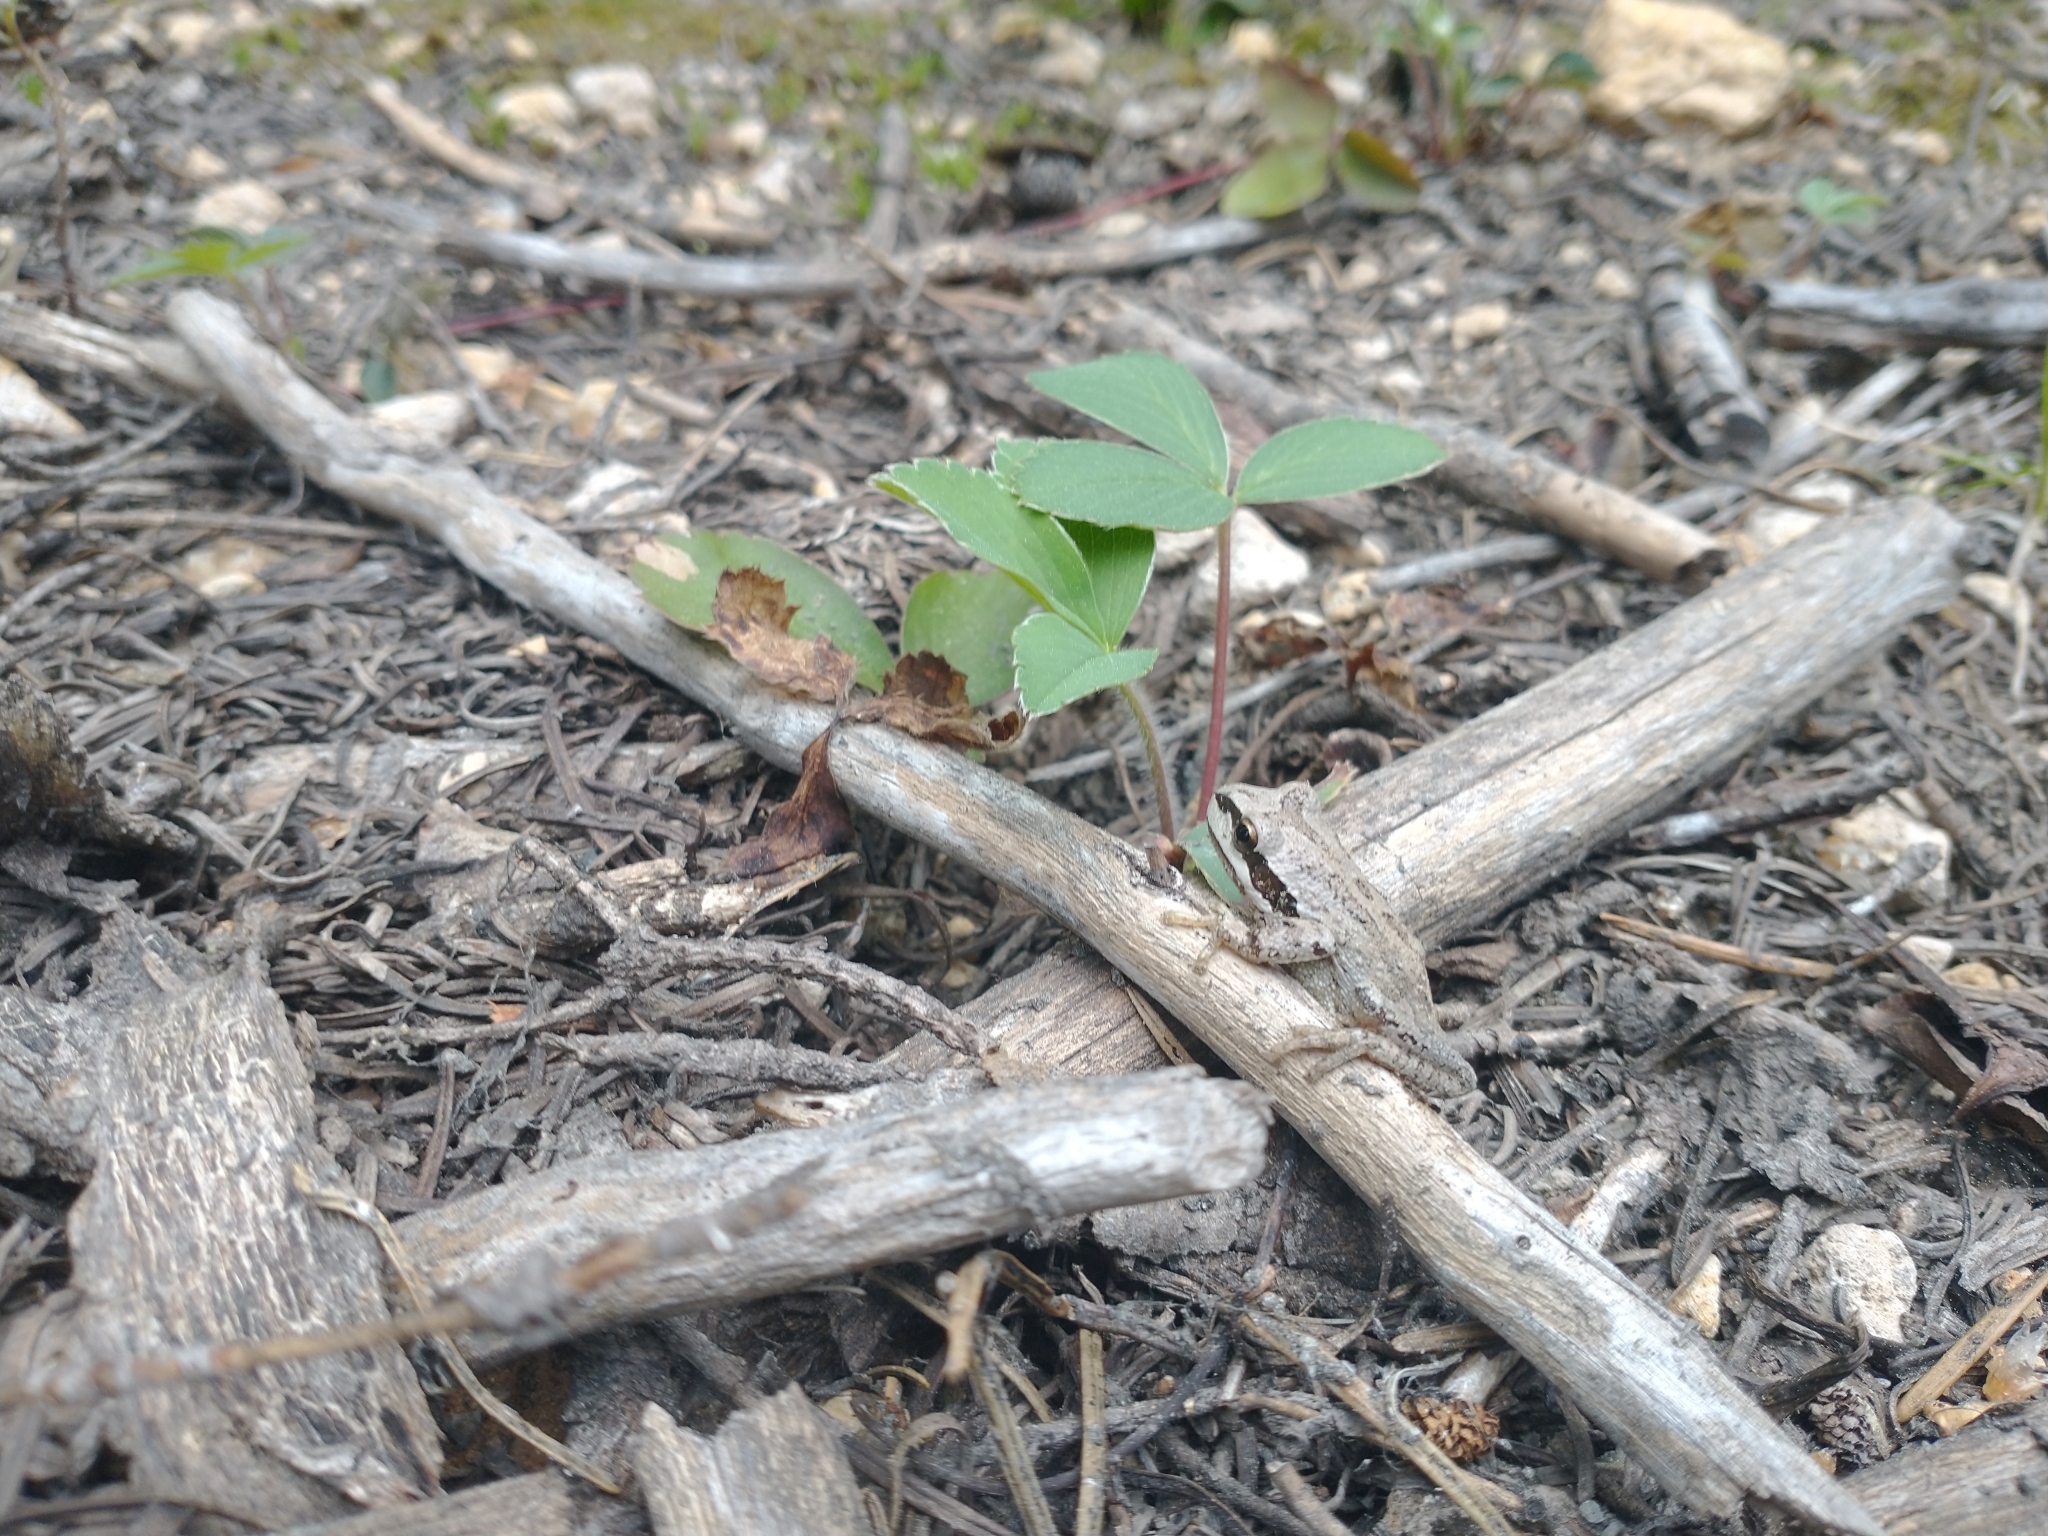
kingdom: Animalia
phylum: Chordata
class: Amphibia
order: Anura
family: Hylidae
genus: Pseudacris
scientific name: Pseudacris regilla
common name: Pacific chorus frog
